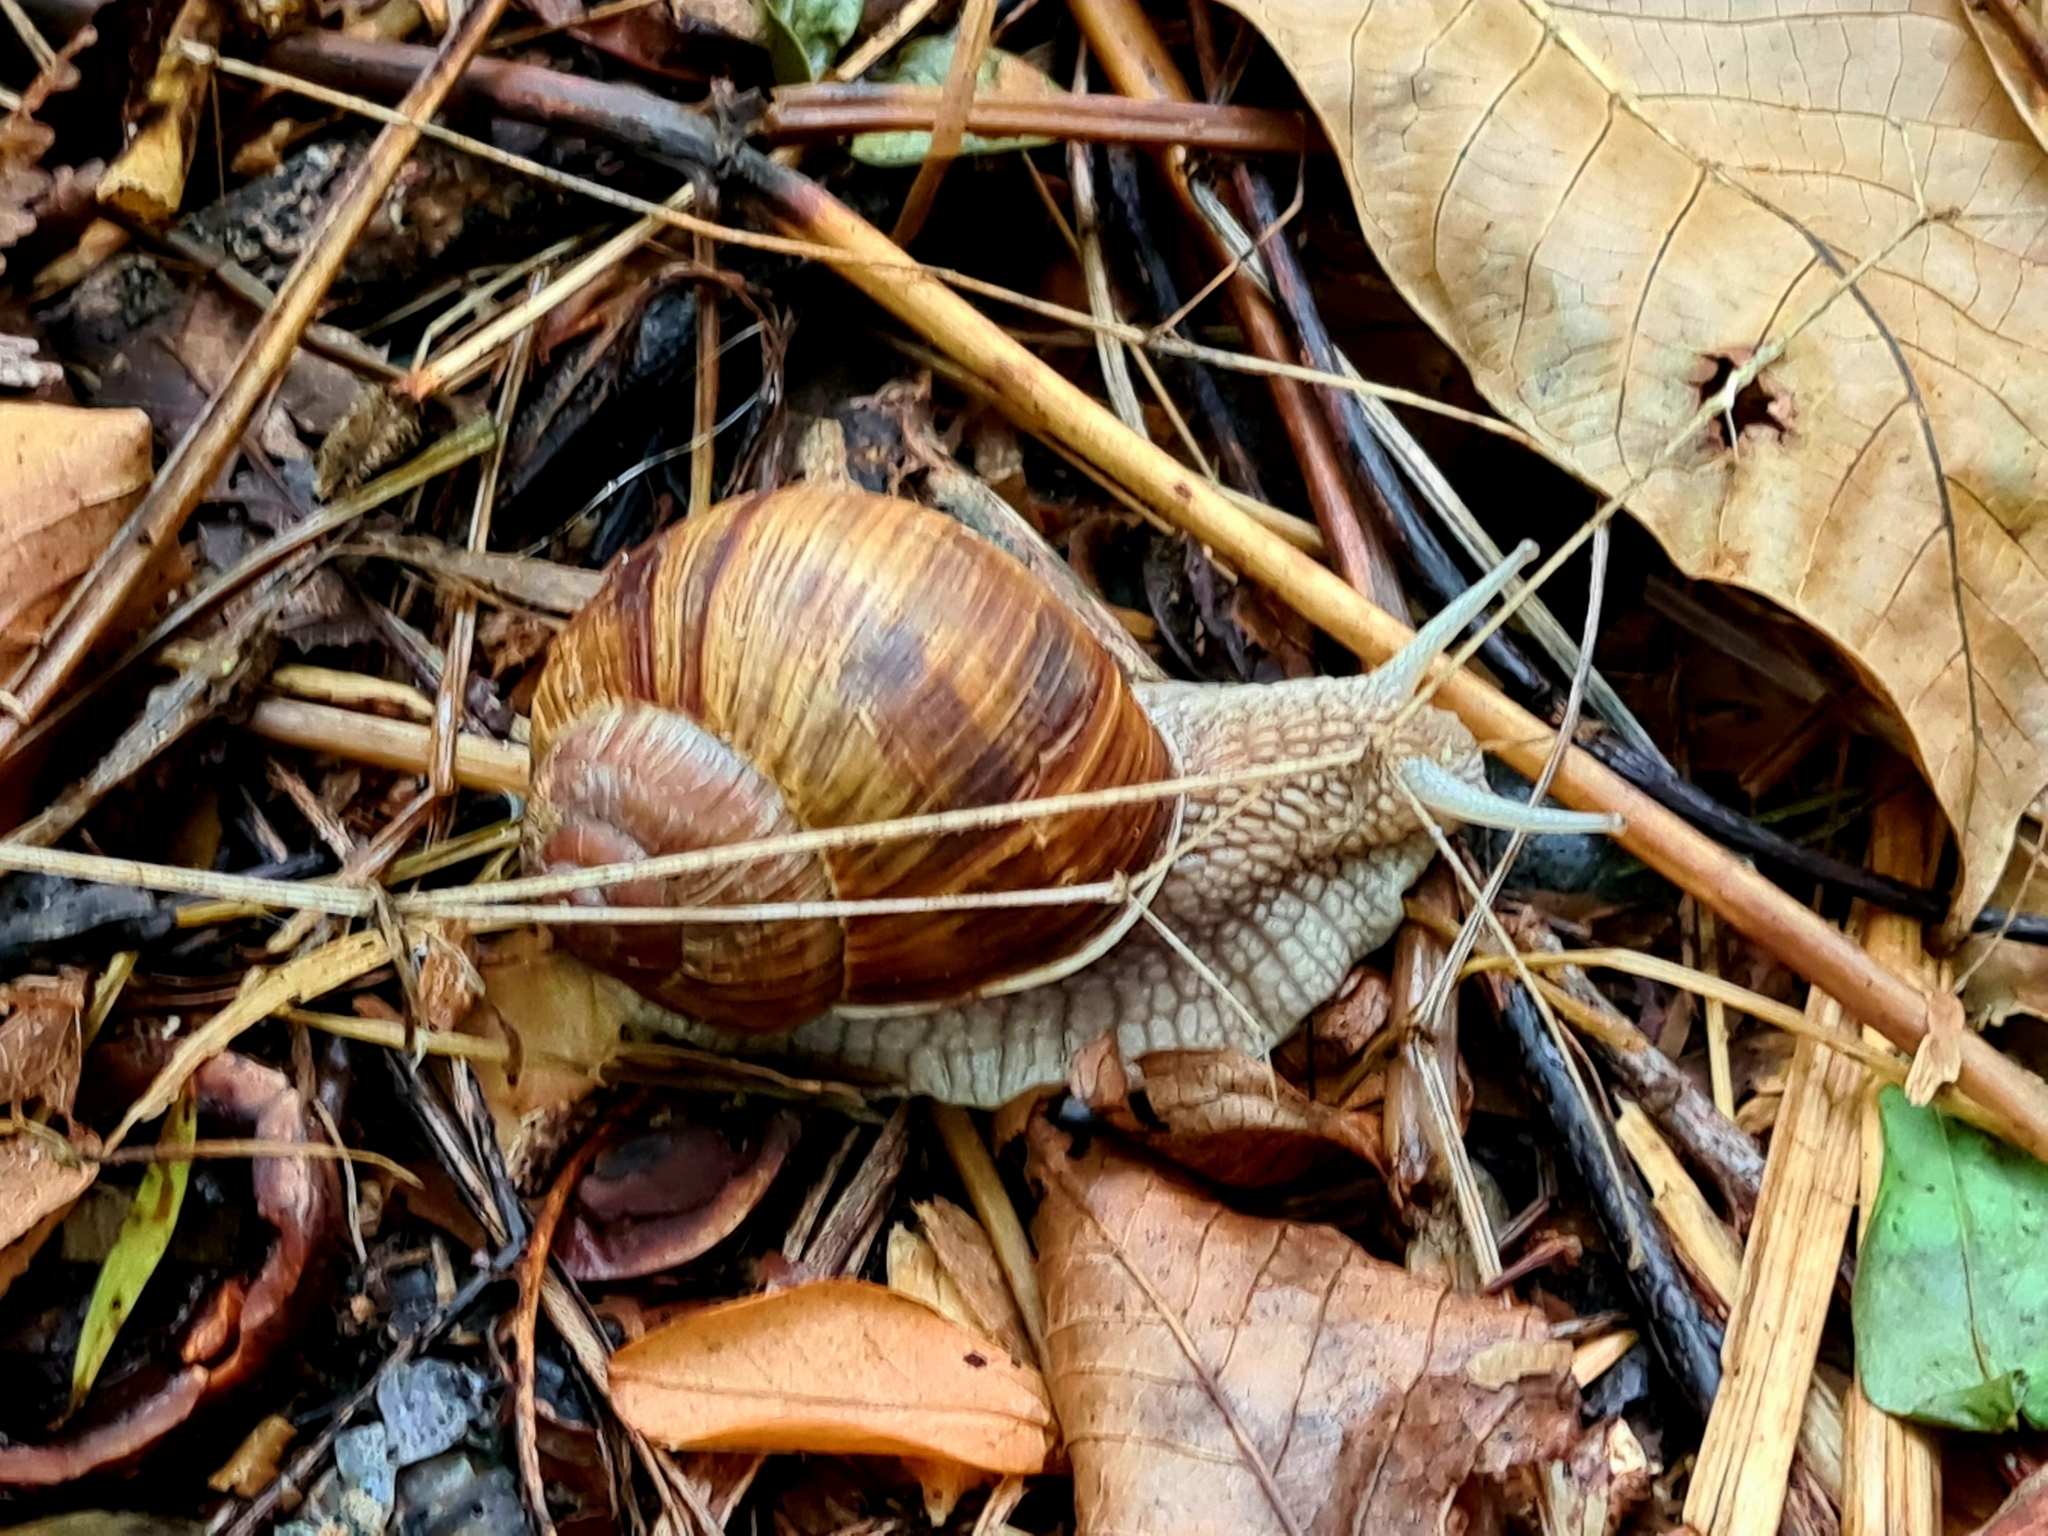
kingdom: Animalia
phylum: Mollusca
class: Gastropoda
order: Stylommatophora
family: Helicidae
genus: Helix
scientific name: Helix pomatia
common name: Roman snail
